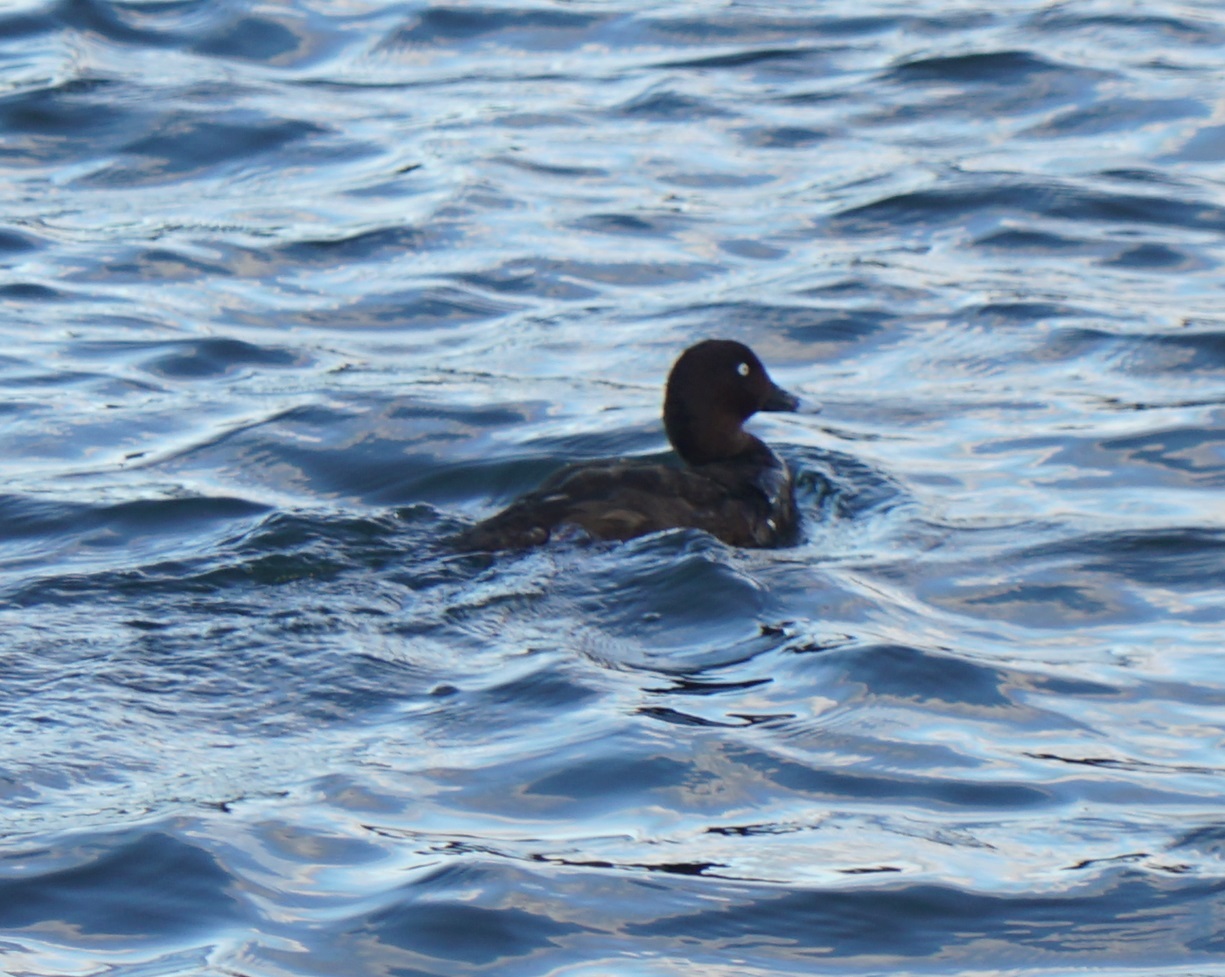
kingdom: Animalia
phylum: Chordata
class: Aves
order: Anseriformes
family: Anatidae
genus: Aythya
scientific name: Aythya australis
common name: Hardhead
